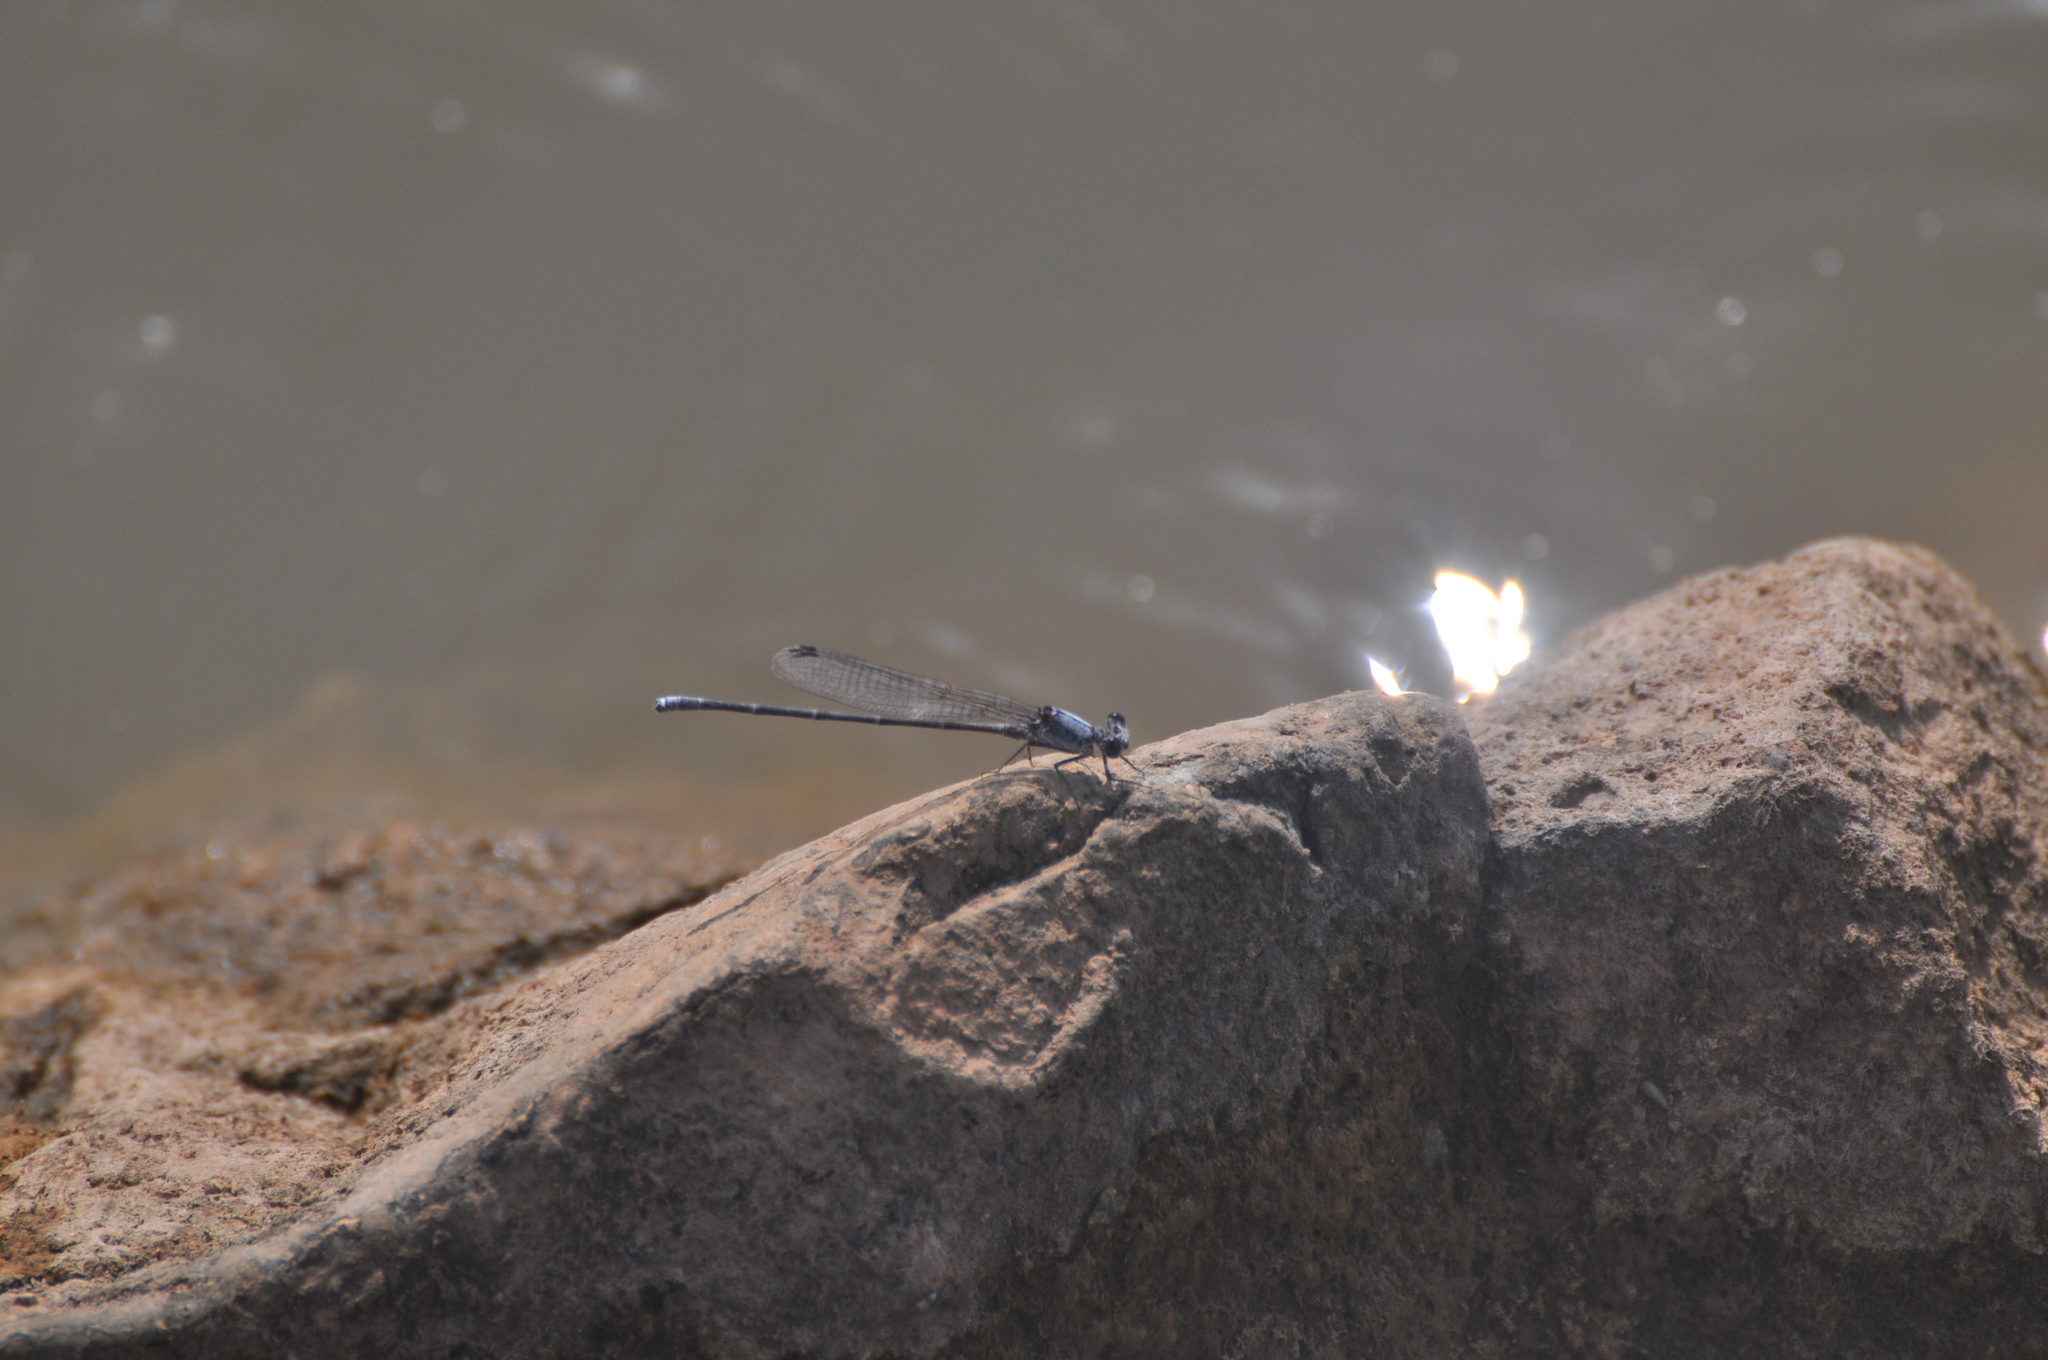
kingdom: Animalia
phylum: Arthropoda
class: Insecta
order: Odonata
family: Coenagrionidae
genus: Argia
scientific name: Argia moesta
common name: Powdered dancer
